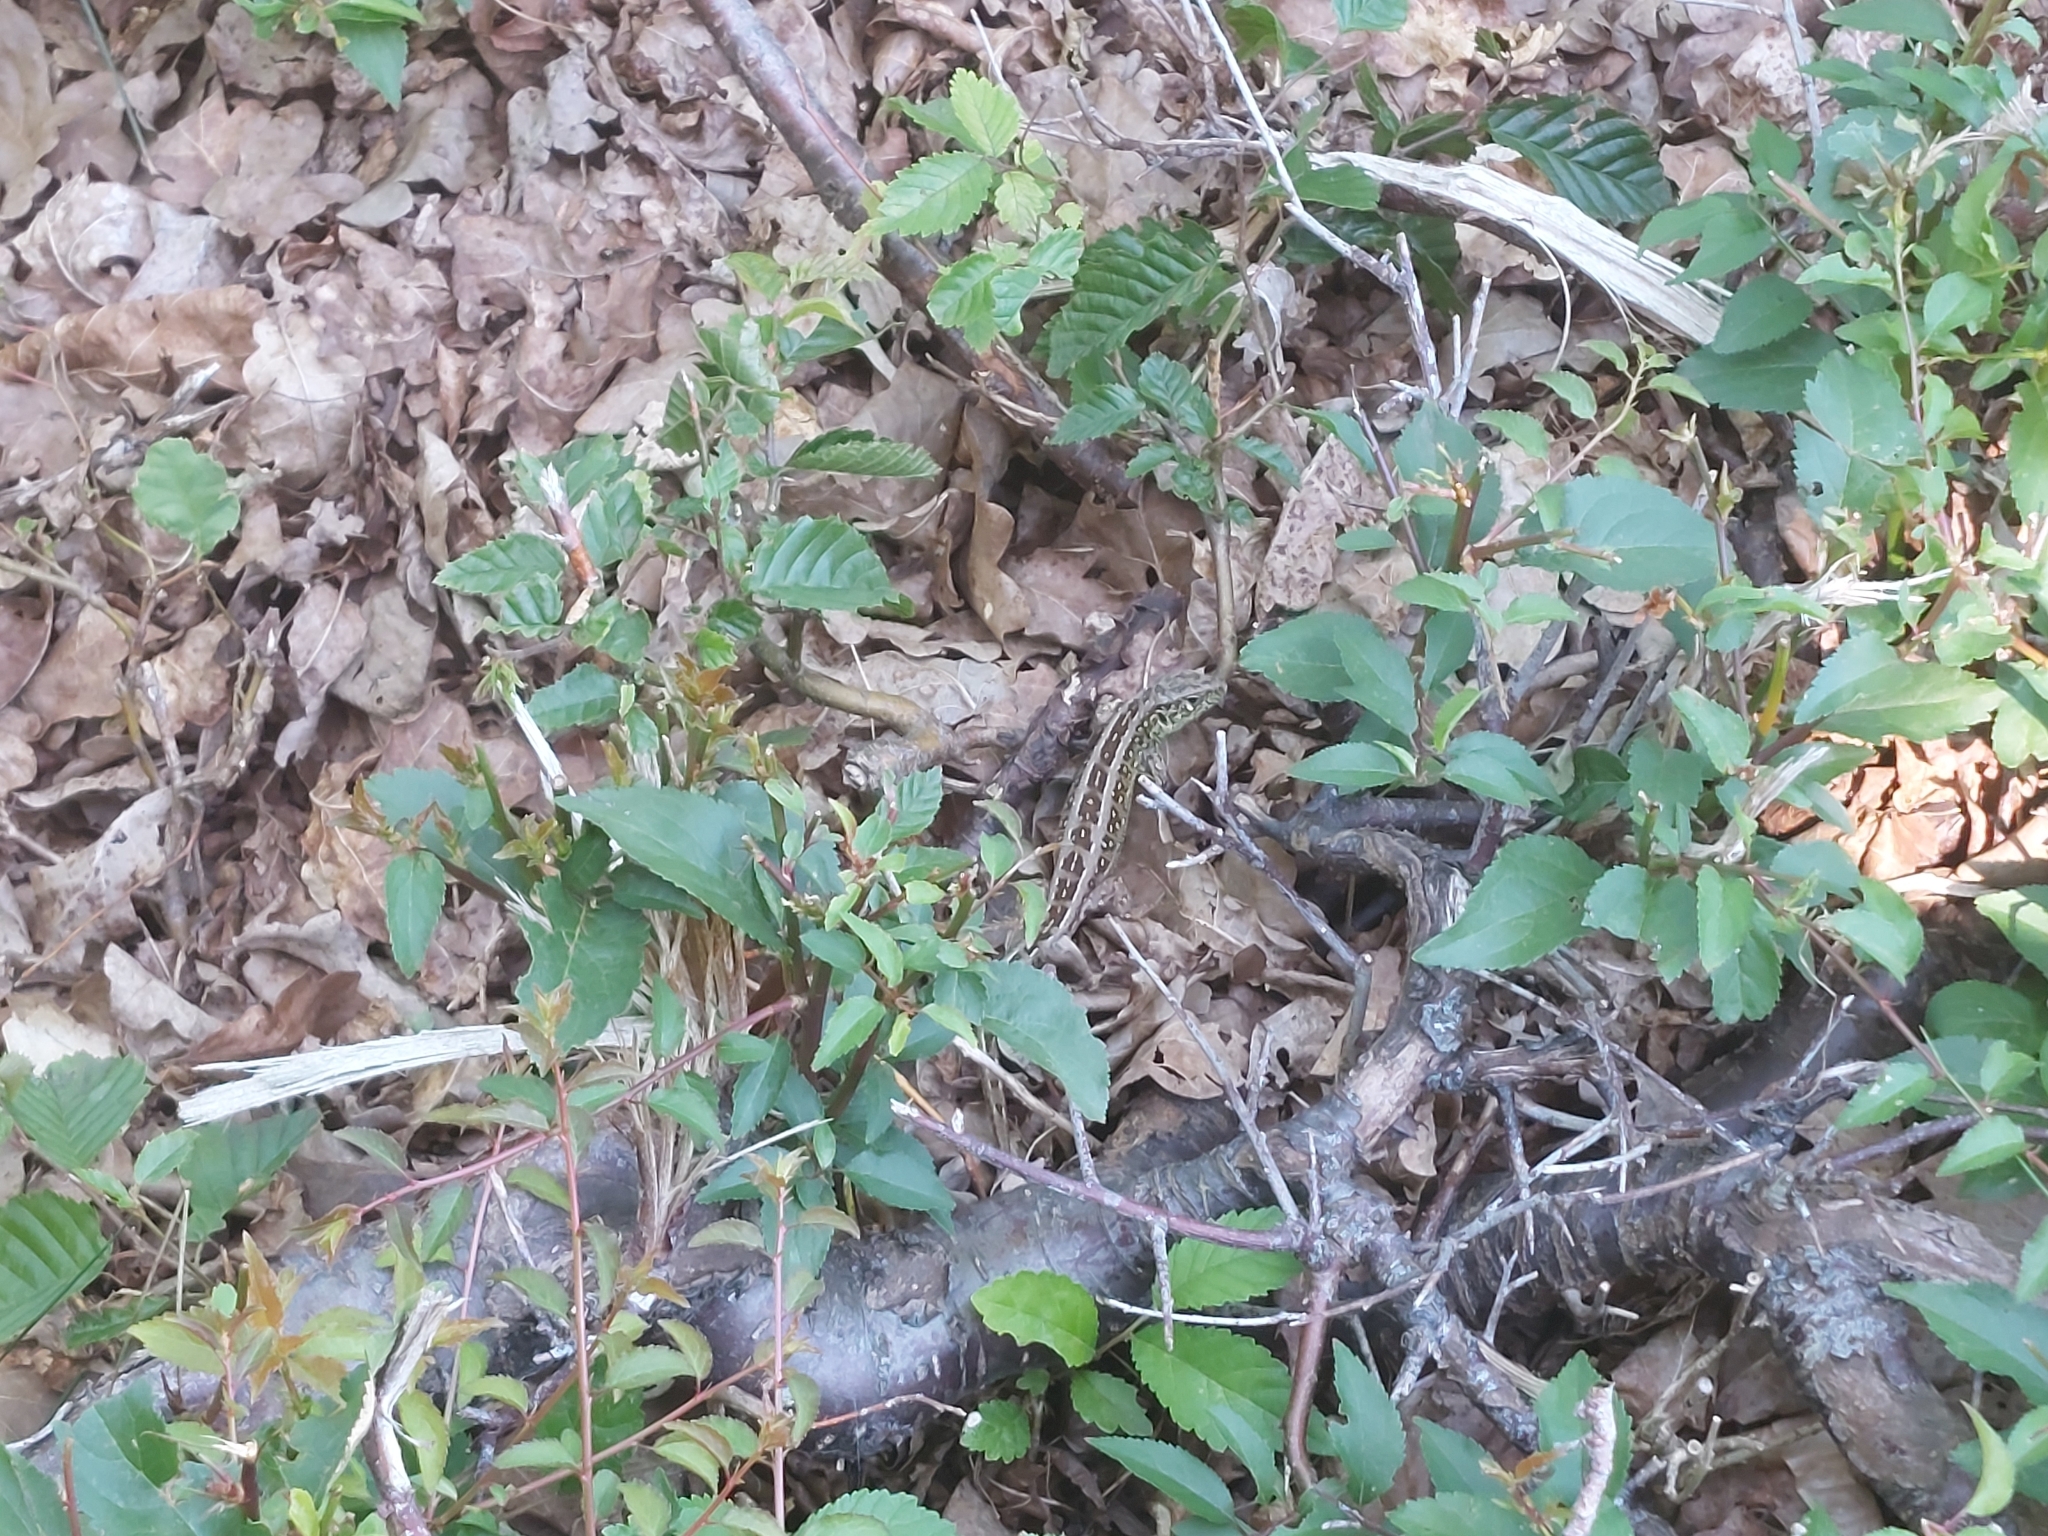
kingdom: Animalia
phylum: Chordata
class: Squamata
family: Lacertidae
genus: Lacerta
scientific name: Lacerta agilis
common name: Sand lizard
